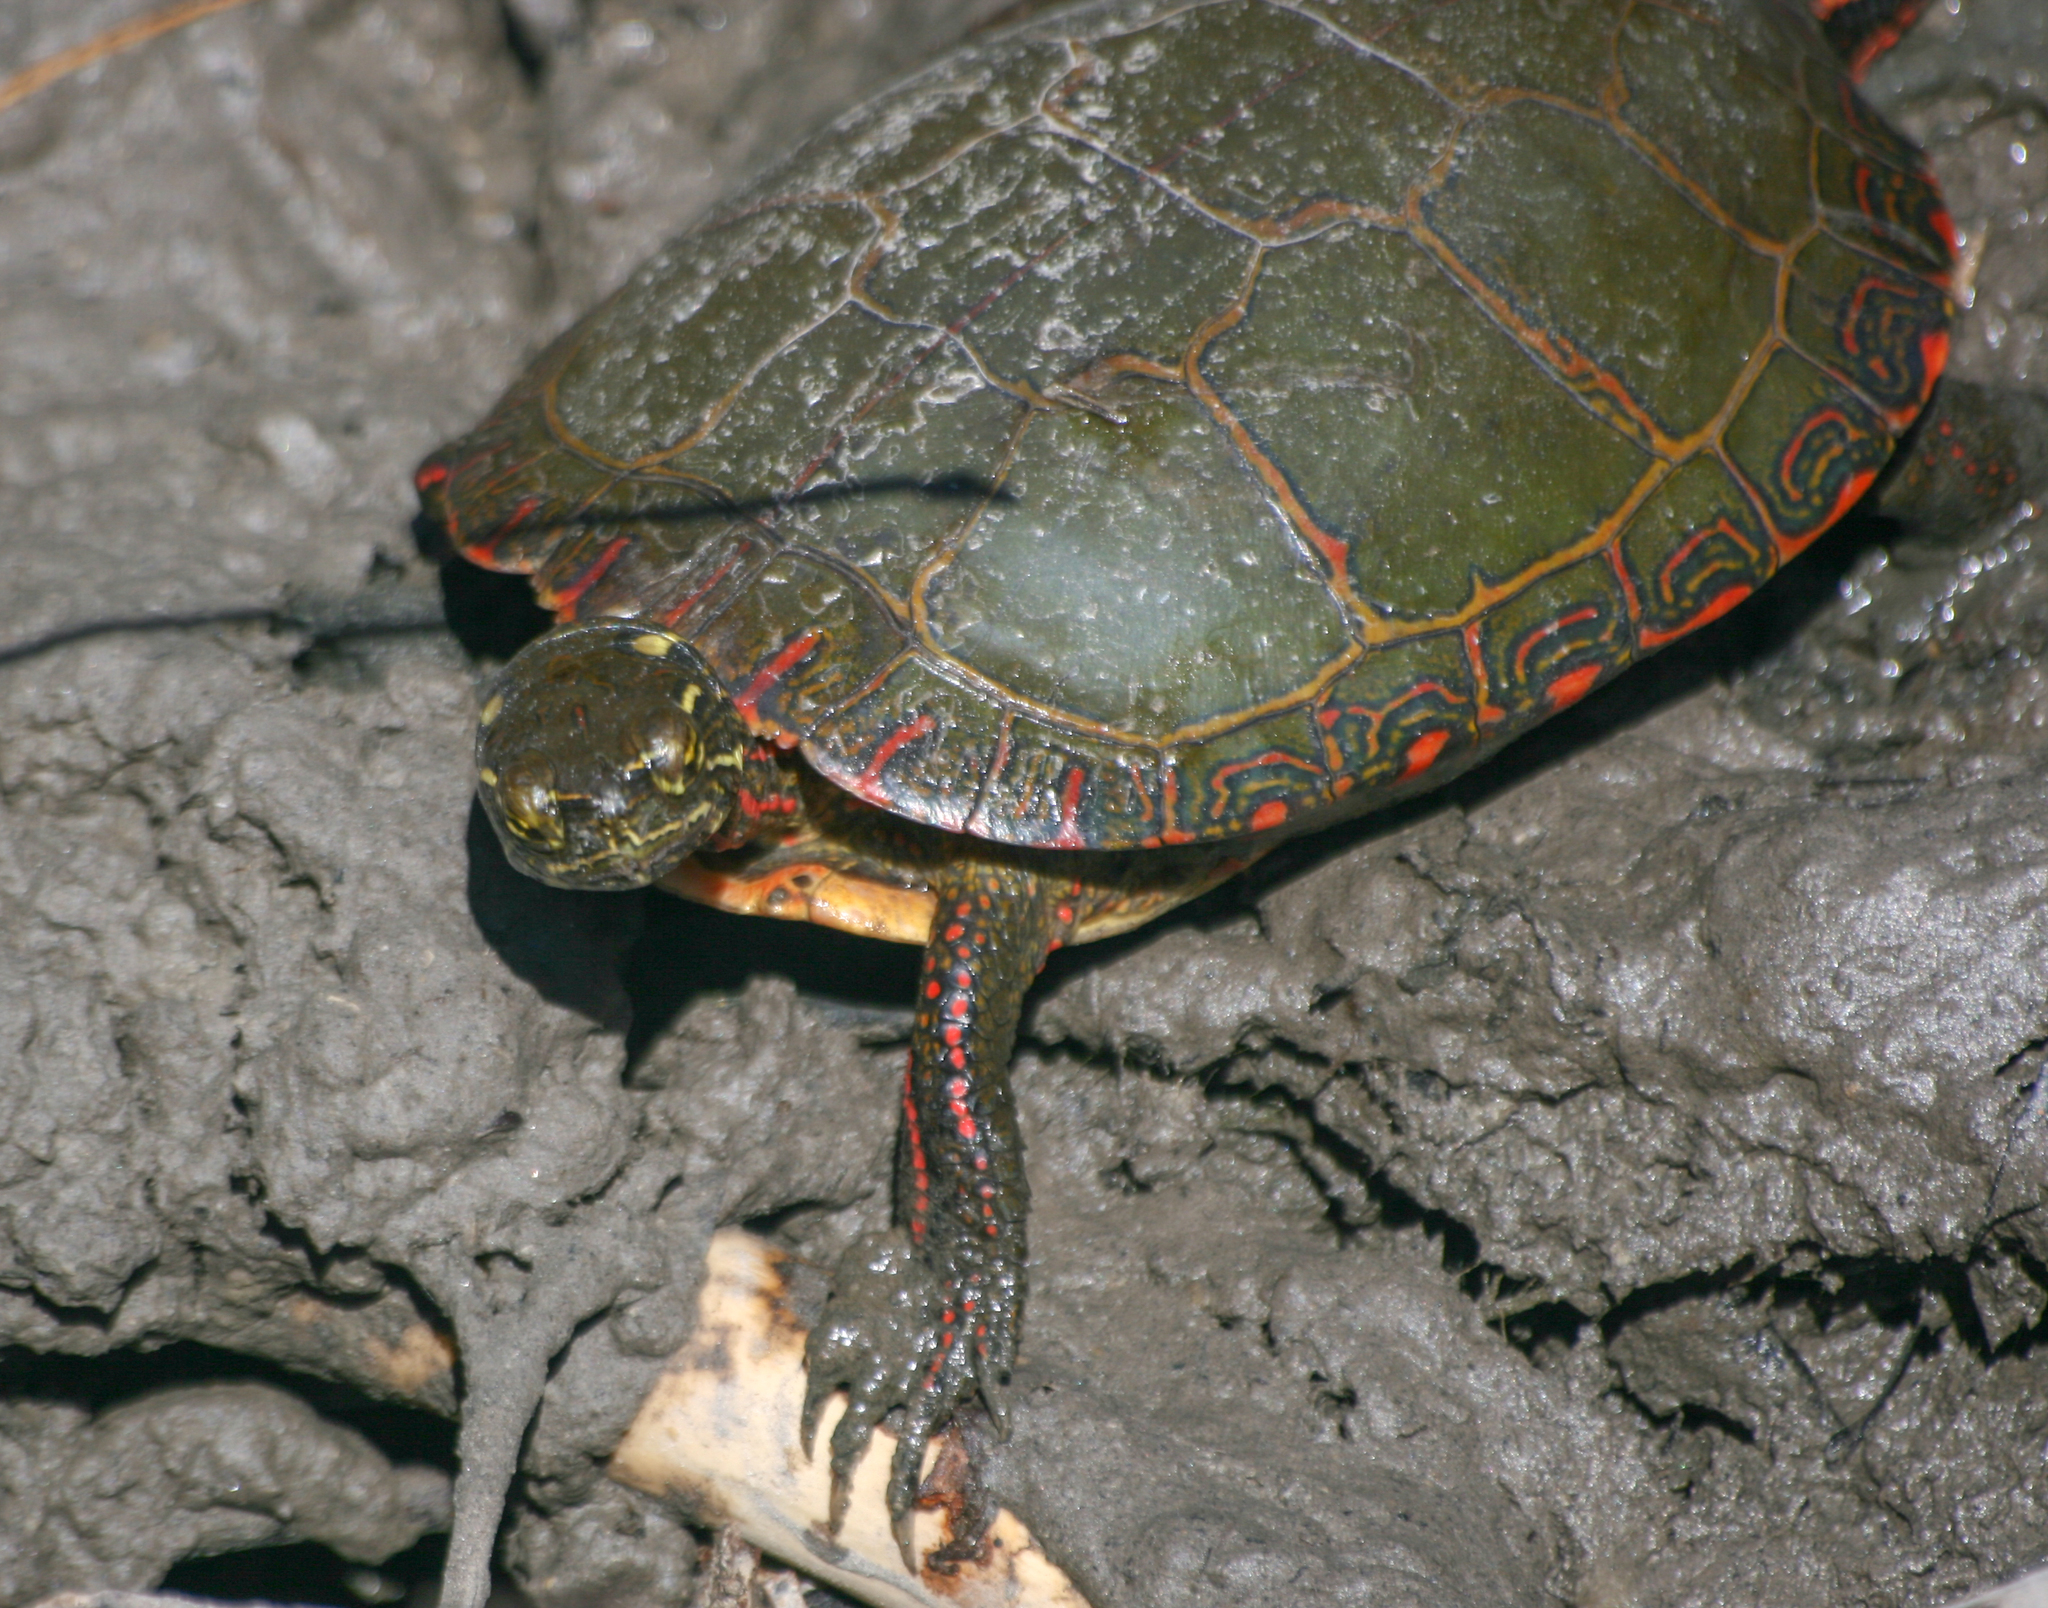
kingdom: Animalia
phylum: Chordata
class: Testudines
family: Emydidae
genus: Chrysemys
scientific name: Chrysemys picta
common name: Painted turtle
